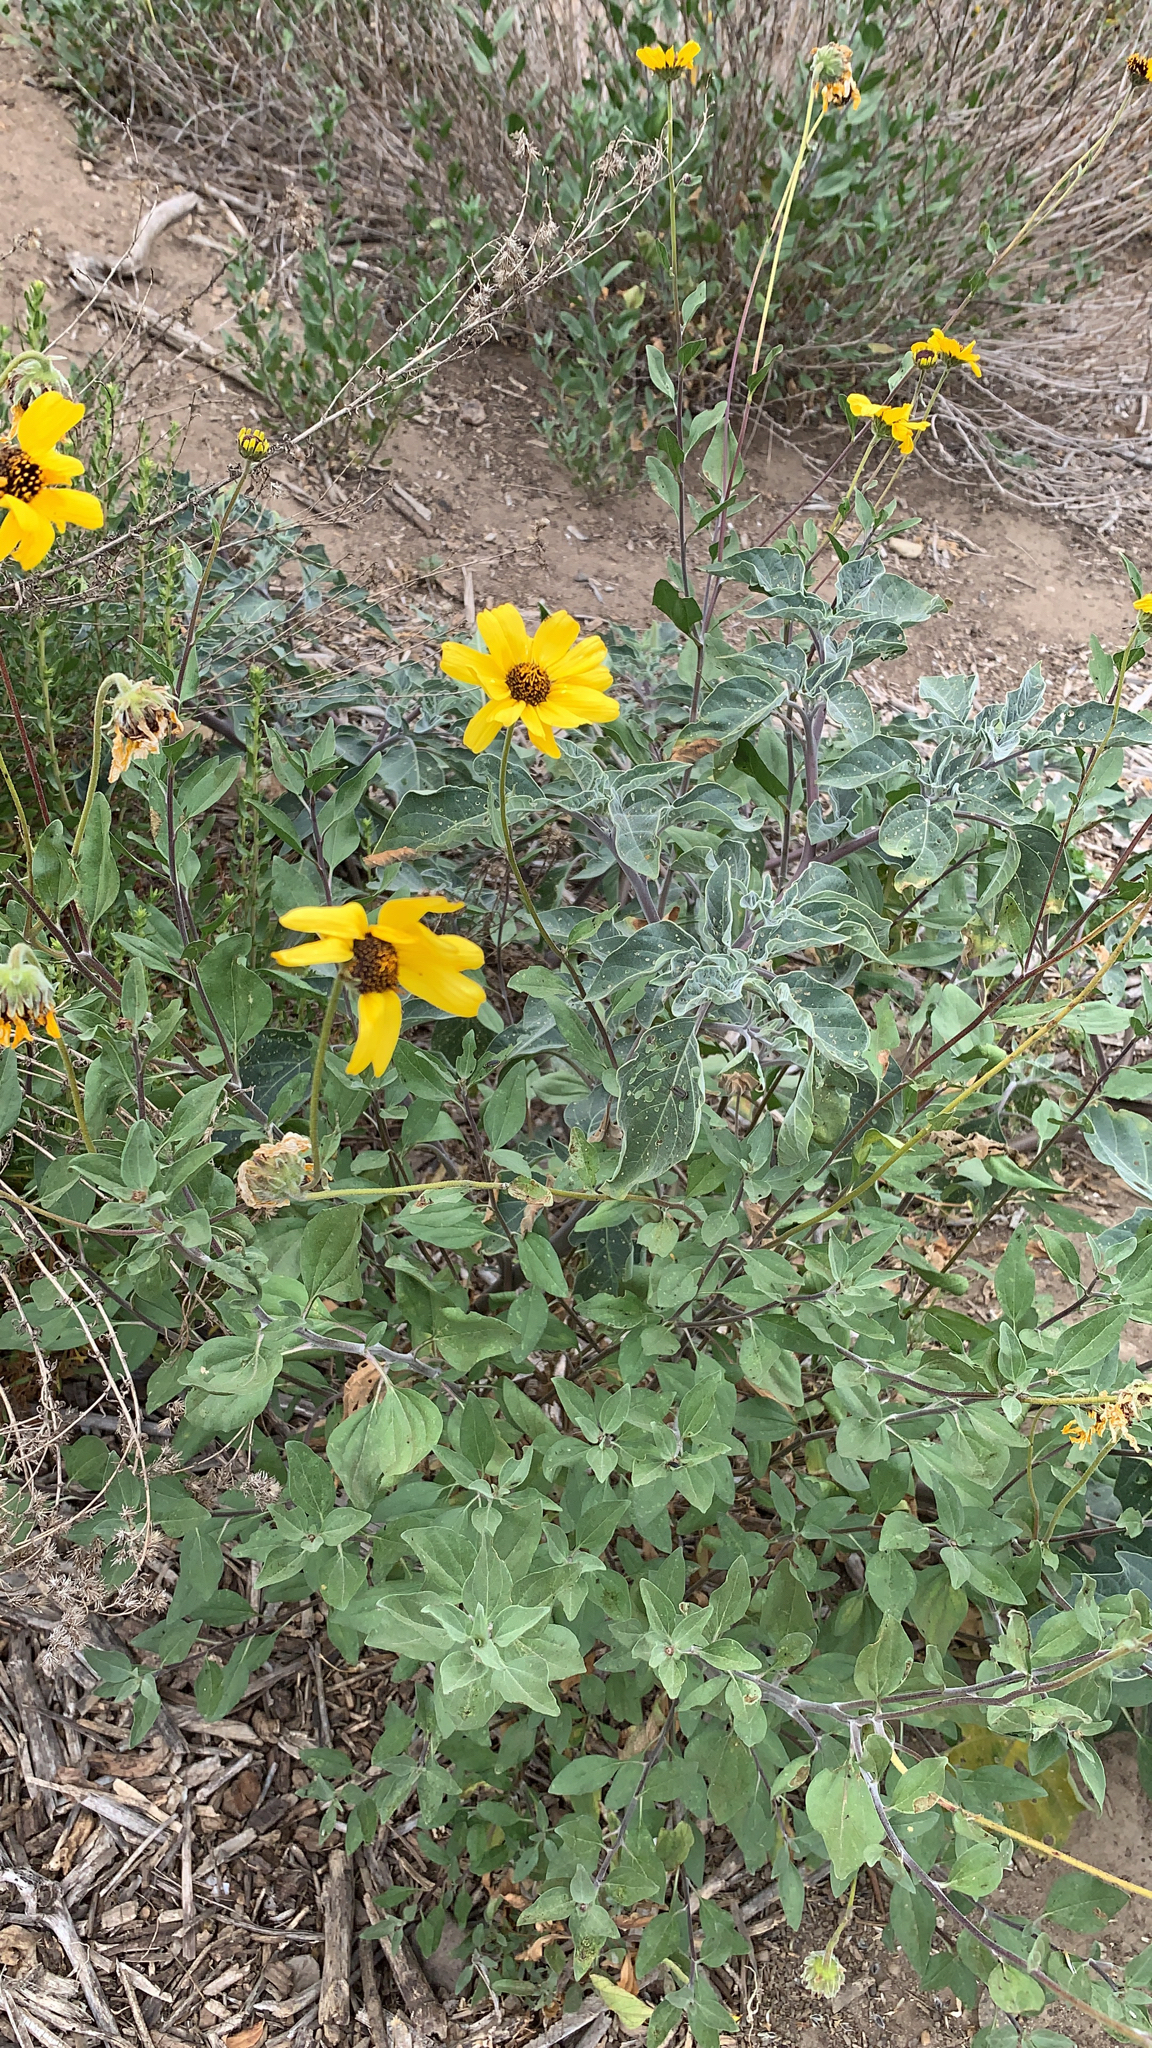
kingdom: Plantae
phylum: Tracheophyta
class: Magnoliopsida
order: Asterales
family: Asteraceae
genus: Encelia
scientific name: Encelia californica
